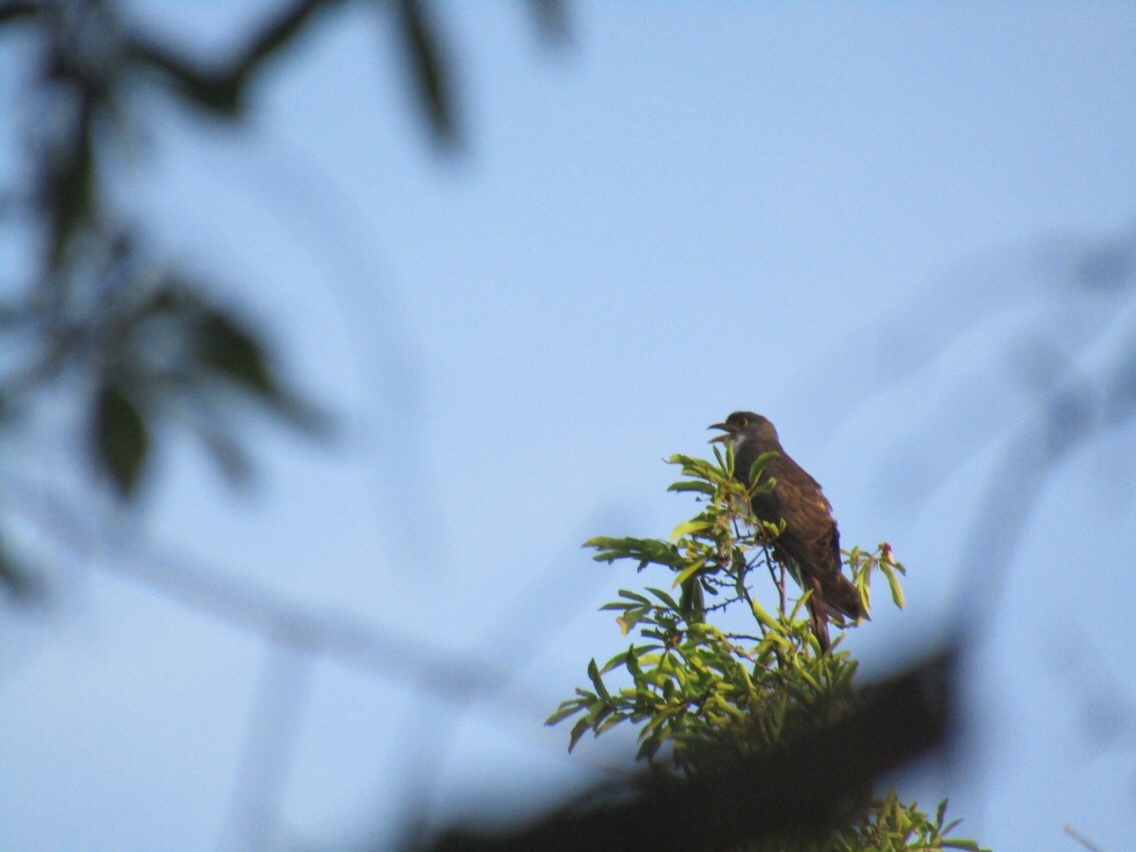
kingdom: Animalia
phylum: Chordata
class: Aves
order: Cuculiformes
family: Cuculidae
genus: Pachycoccyx
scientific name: Pachycoccyx audeberti
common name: Thick-billed cuckoo
